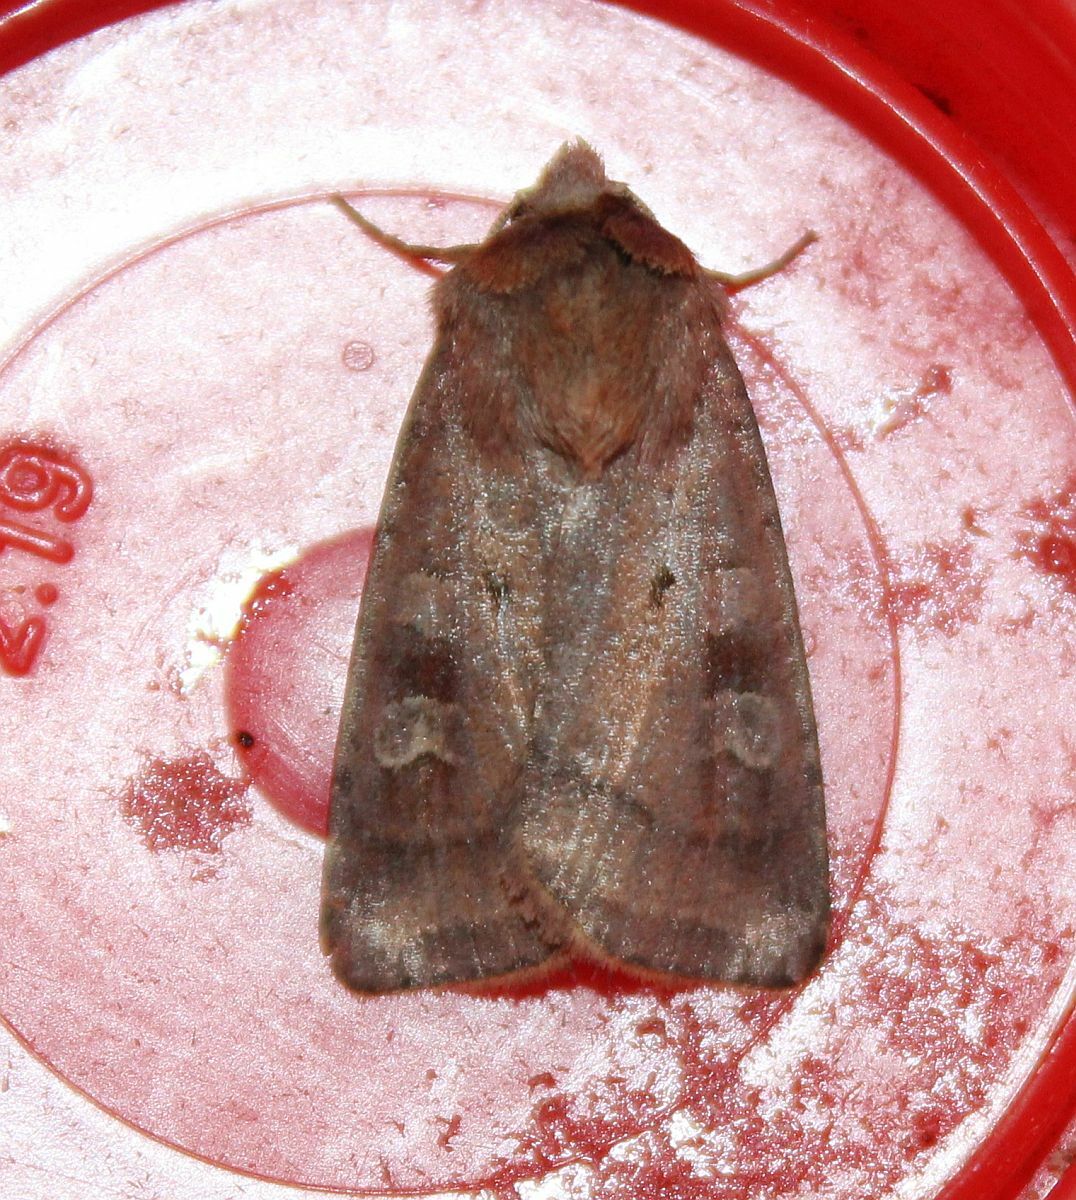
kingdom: Animalia
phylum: Arthropoda
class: Insecta
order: Lepidoptera
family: Noctuidae
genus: Diarsia
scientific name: Diarsia rubi
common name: Small square-spot
